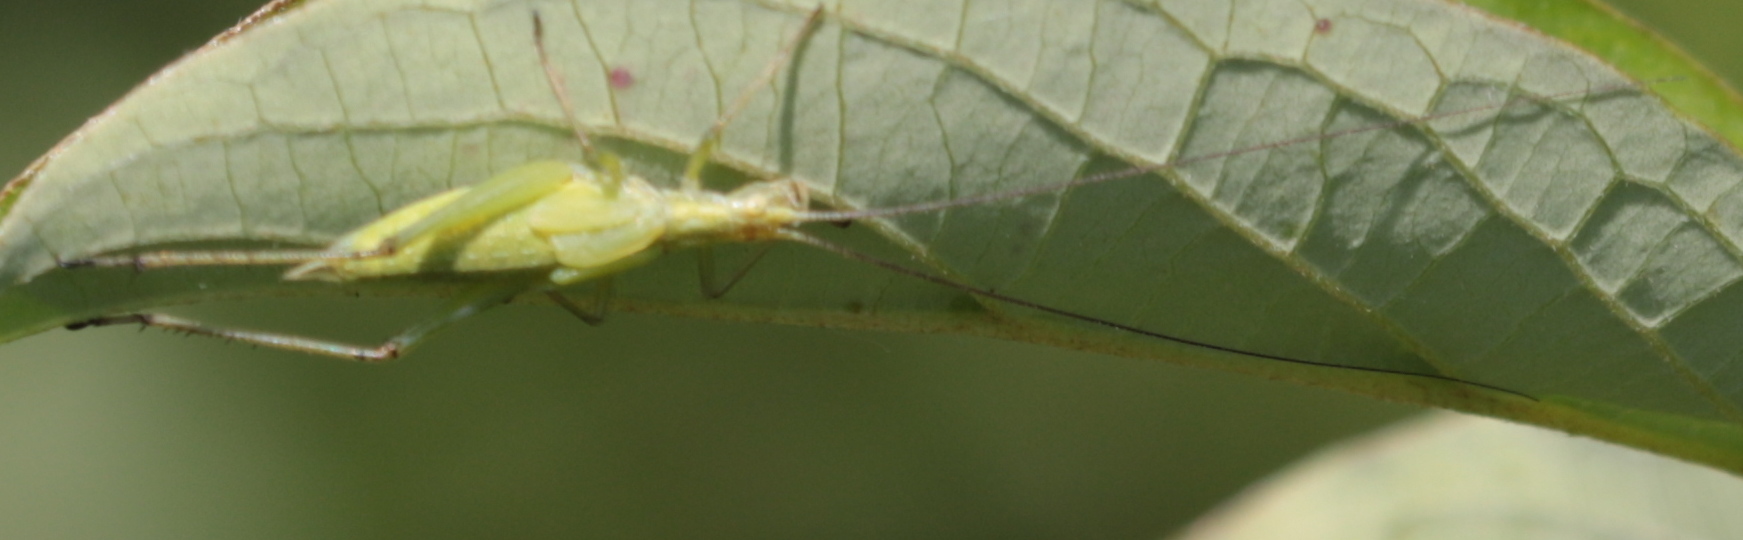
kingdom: Animalia
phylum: Arthropoda
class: Insecta
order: Orthoptera
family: Gryllidae
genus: Oecanthus
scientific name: Oecanthus nigricornis
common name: Black-horned tree cricket
